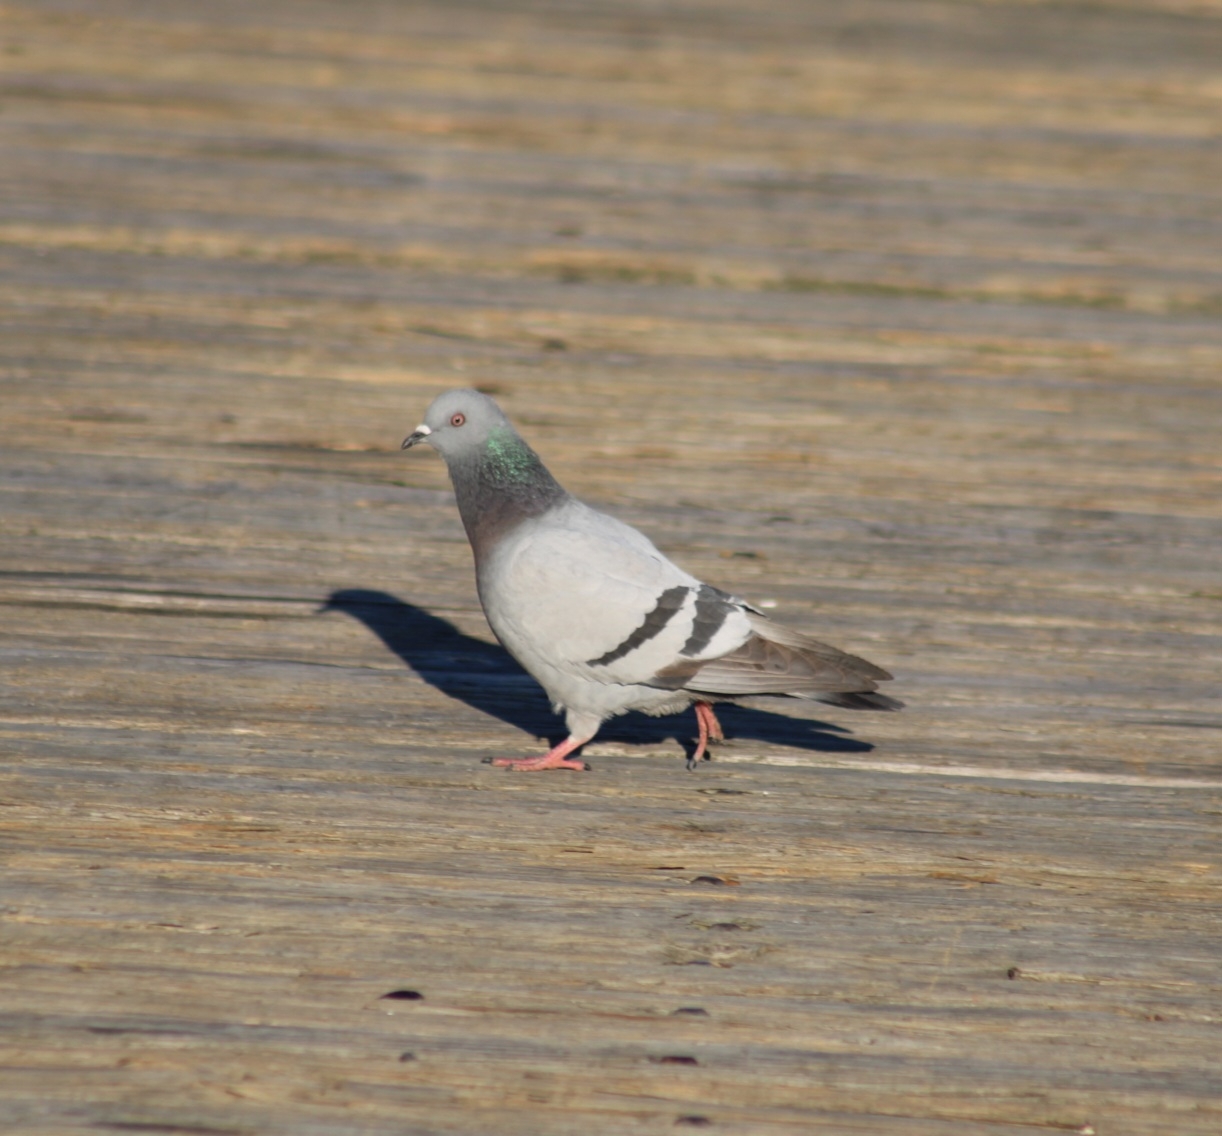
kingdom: Animalia
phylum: Chordata
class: Aves
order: Columbiformes
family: Columbidae
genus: Columba
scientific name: Columba livia
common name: Rock pigeon
